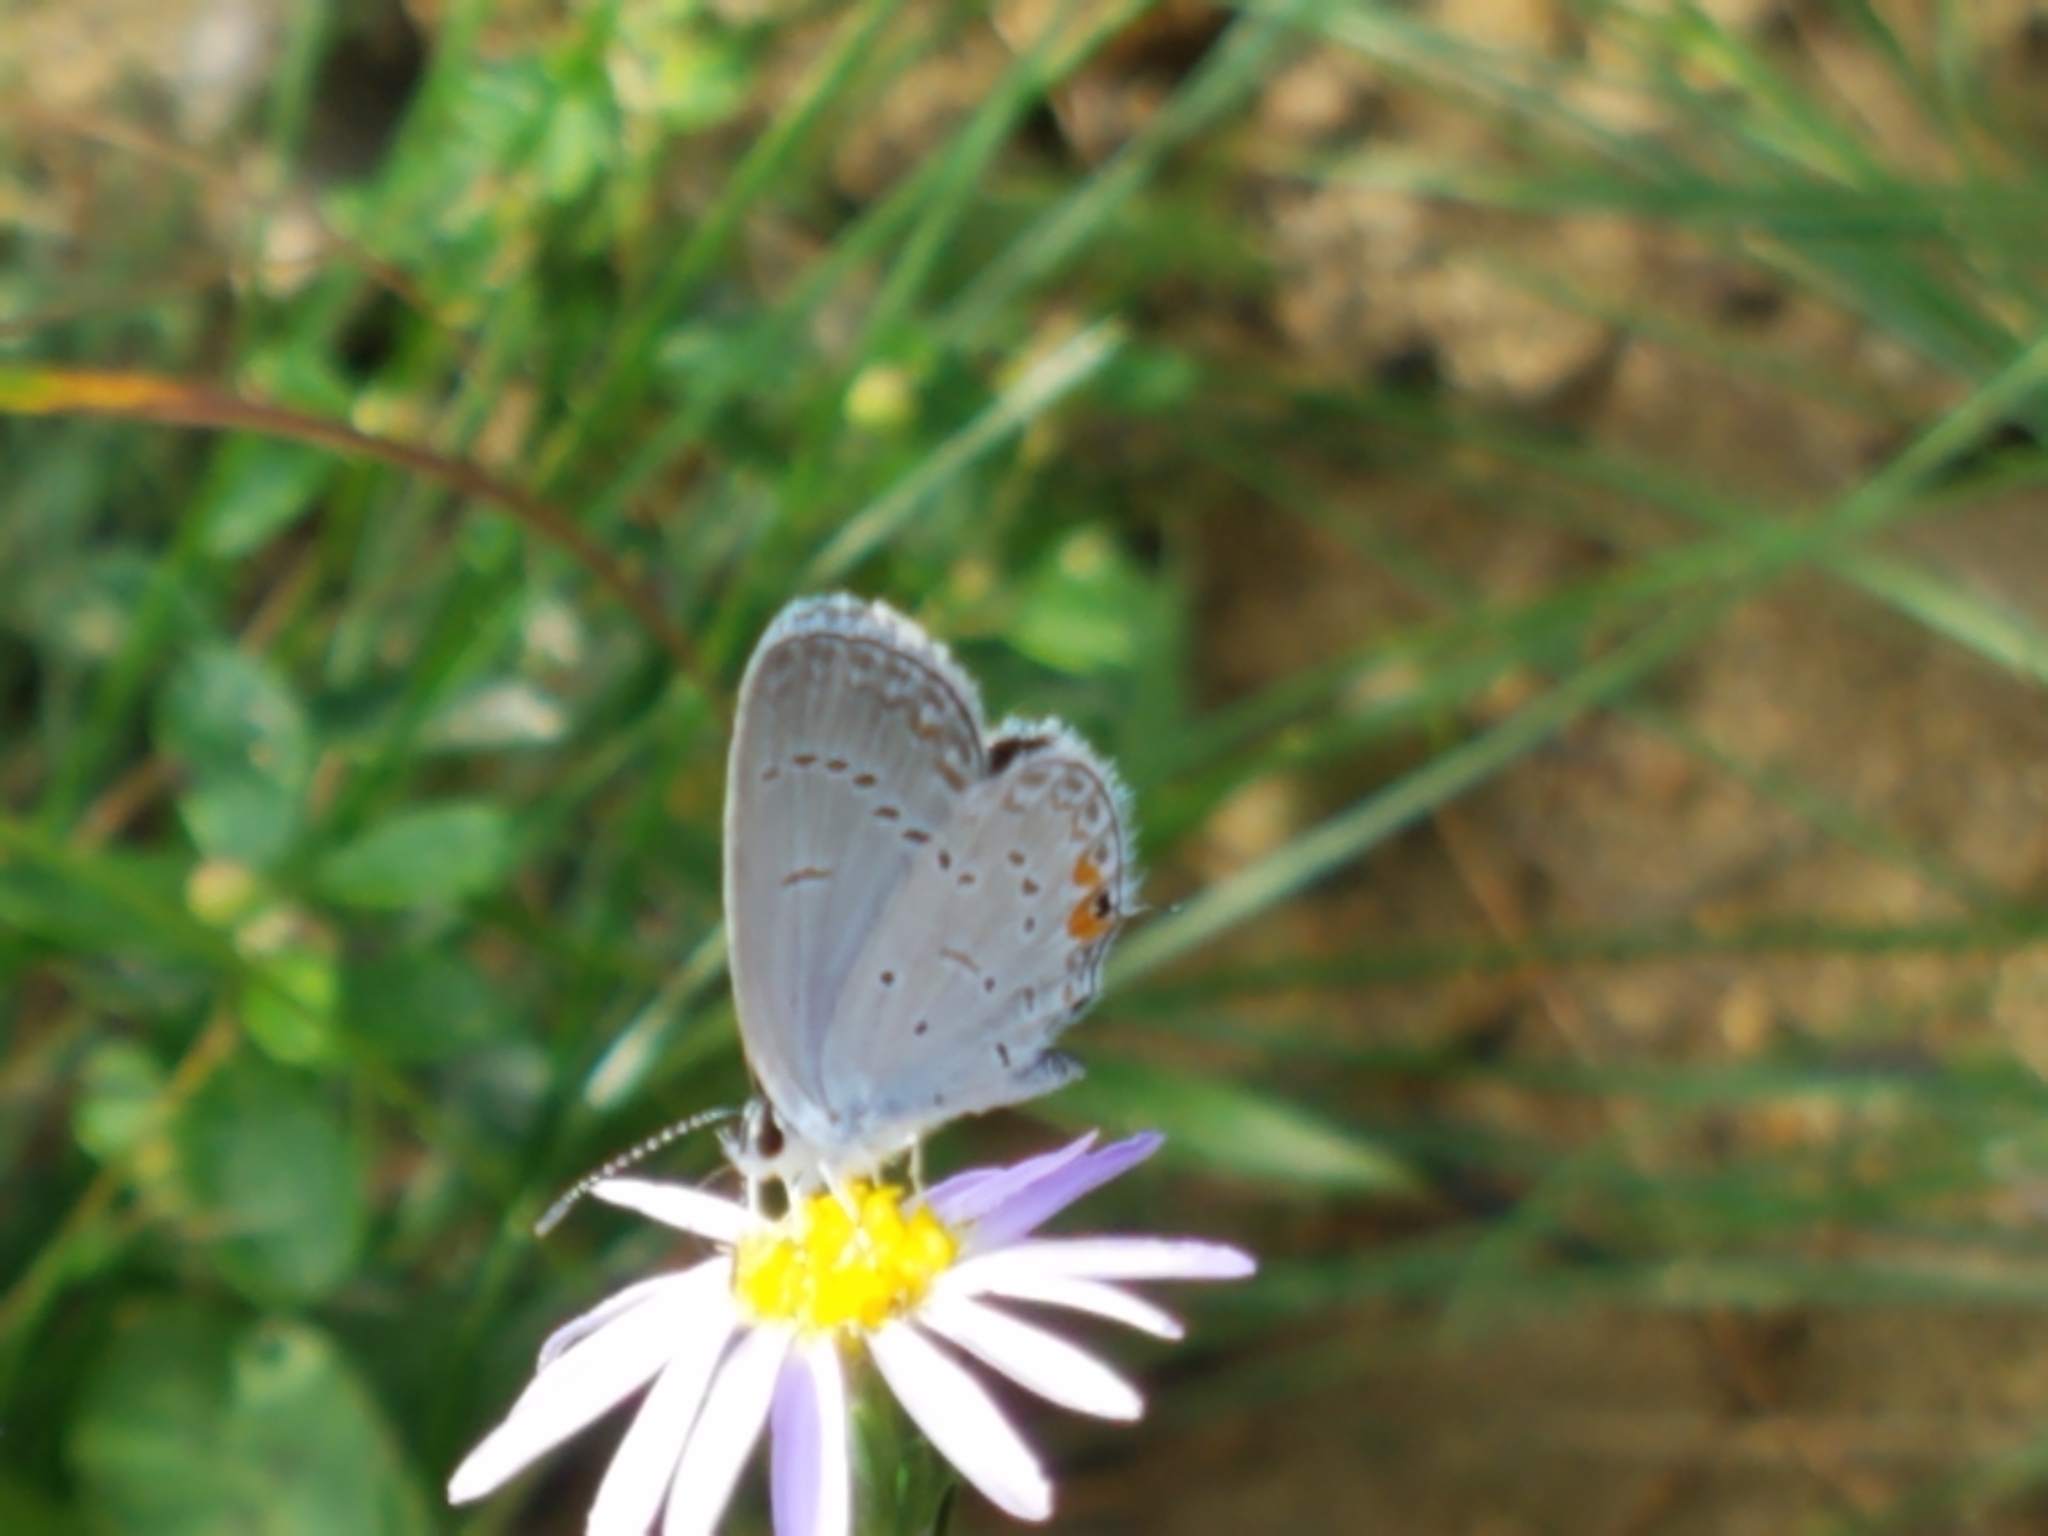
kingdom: Animalia
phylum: Arthropoda
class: Insecta
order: Lepidoptera
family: Lycaenidae
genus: Elkalyce
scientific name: Elkalyce comyntas
